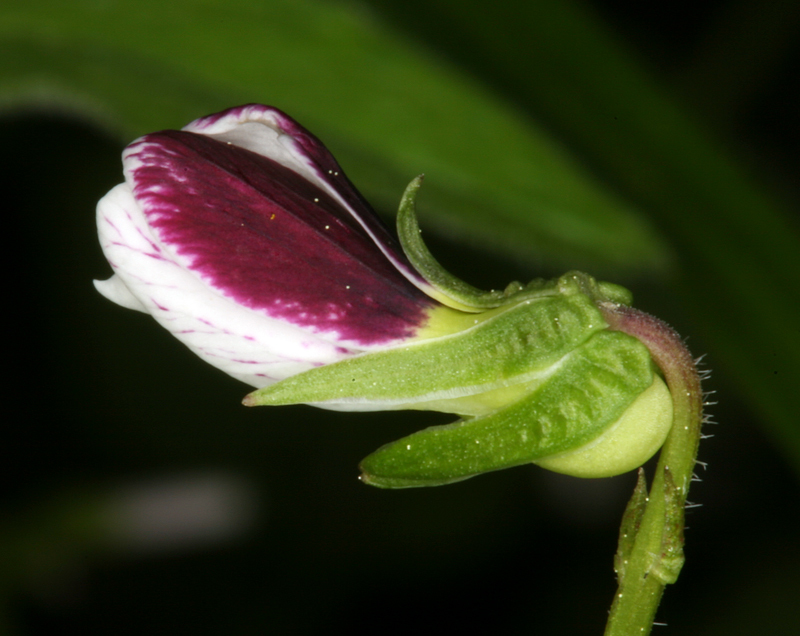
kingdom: Plantae
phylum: Tracheophyta
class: Magnoliopsida
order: Malpighiales
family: Violaceae
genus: Viola
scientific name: Viola ocellata
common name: Western heart's ease
